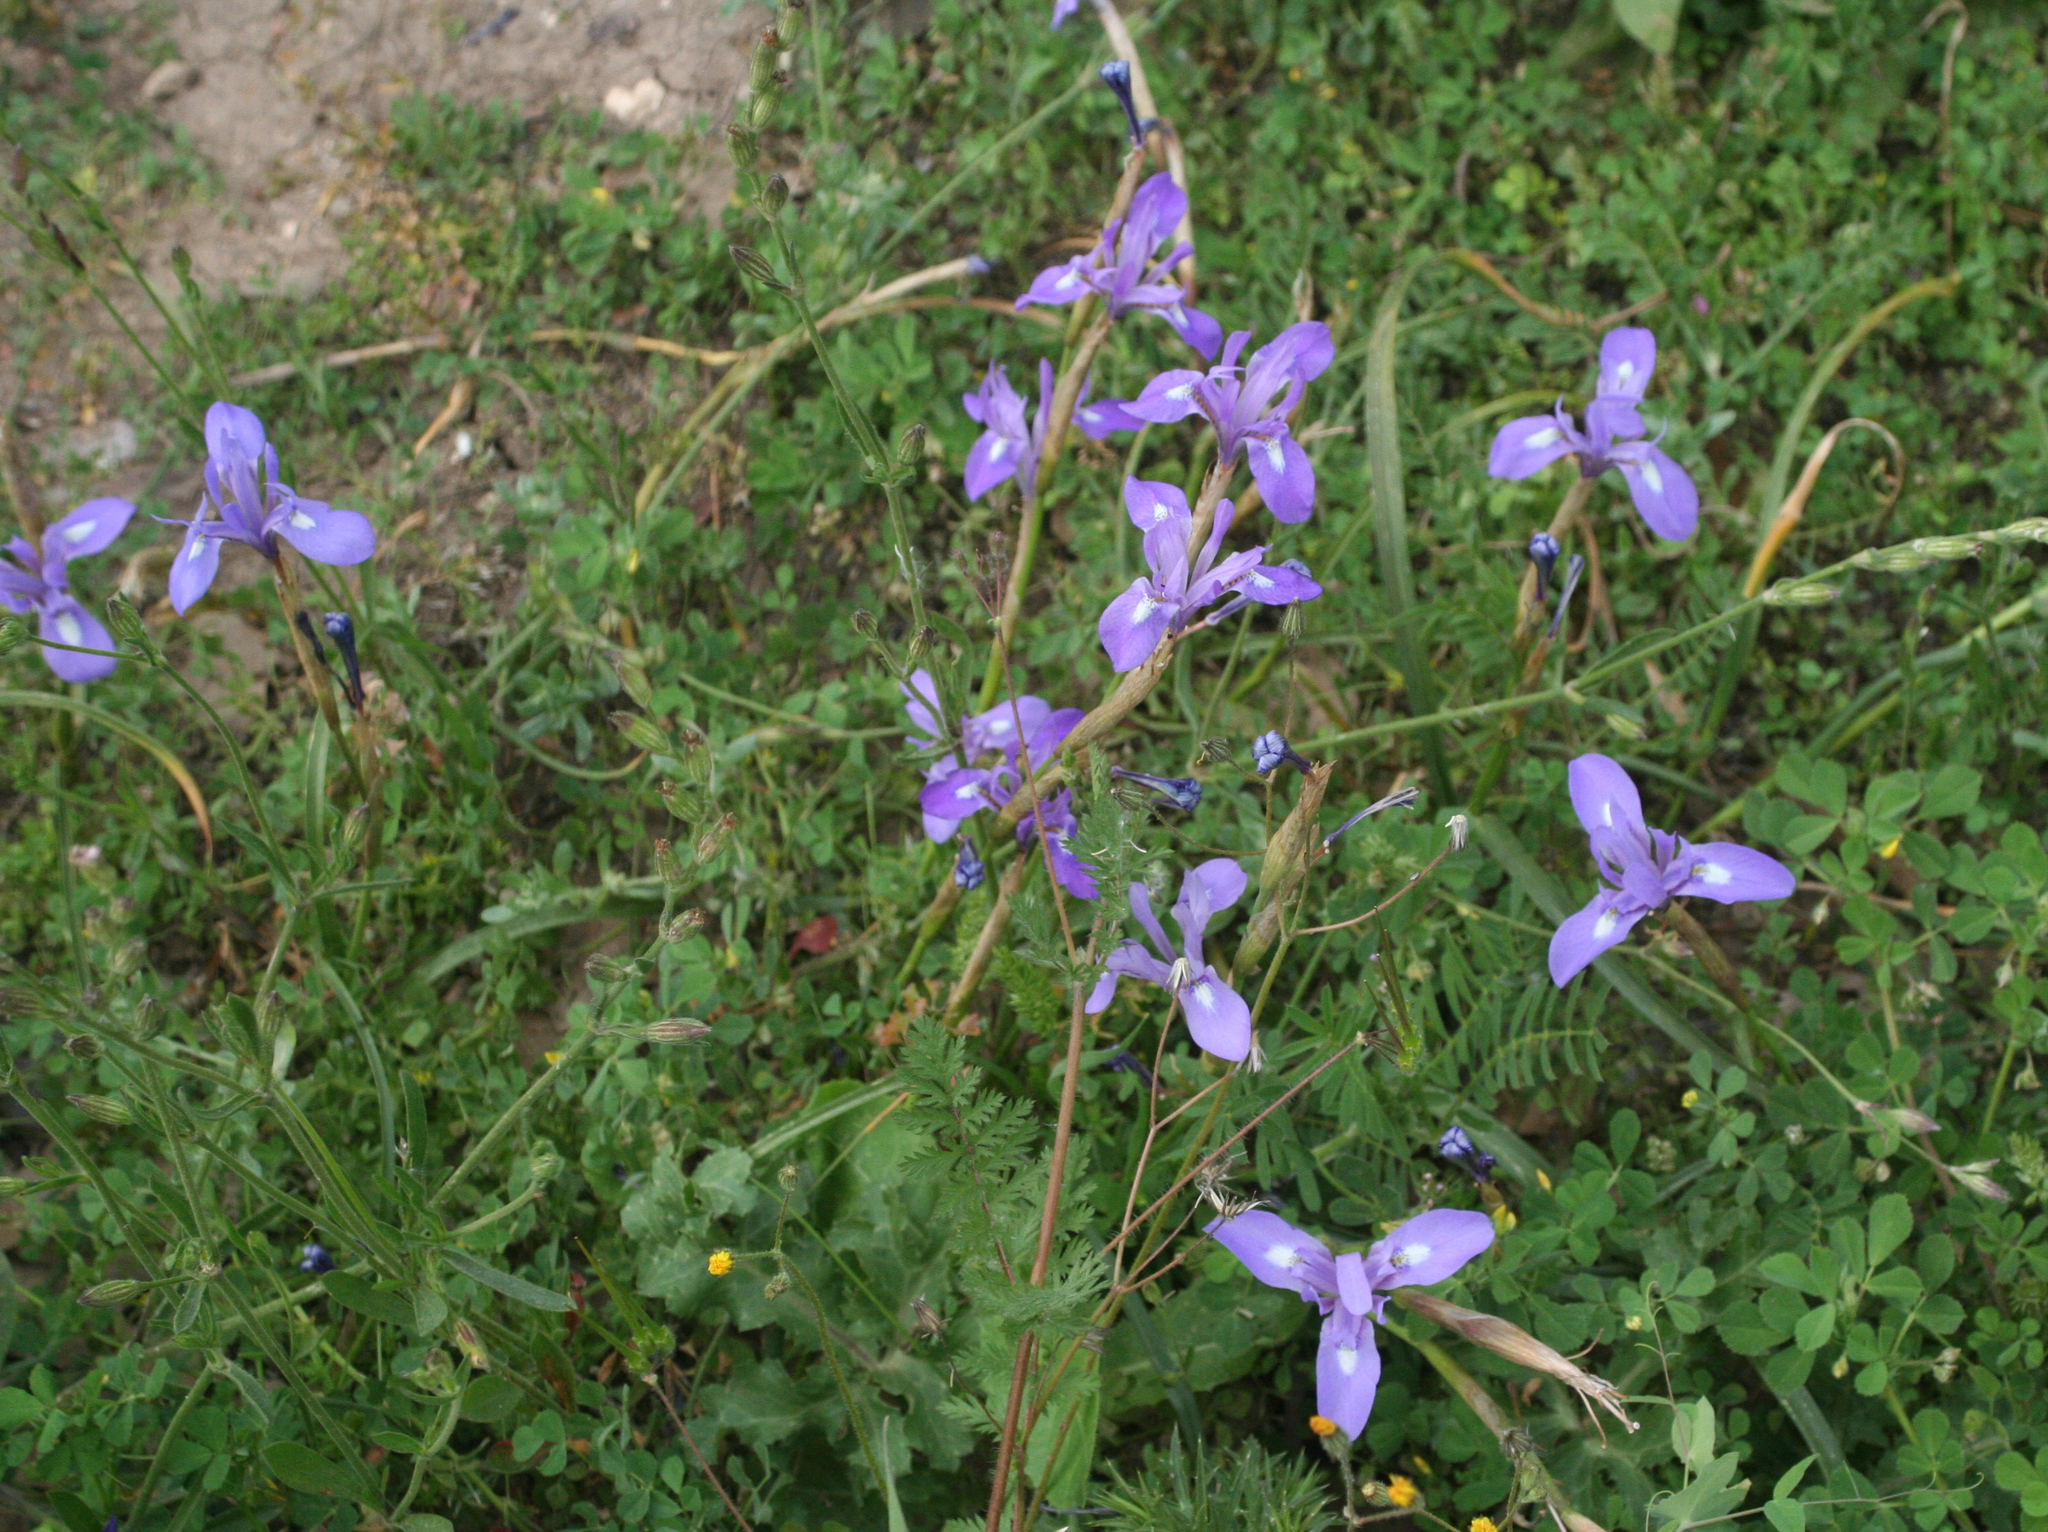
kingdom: Plantae
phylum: Tracheophyta
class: Liliopsida
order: Asparagales
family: Iridaceae
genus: Moraea
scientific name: Moraea sisyrinchium
